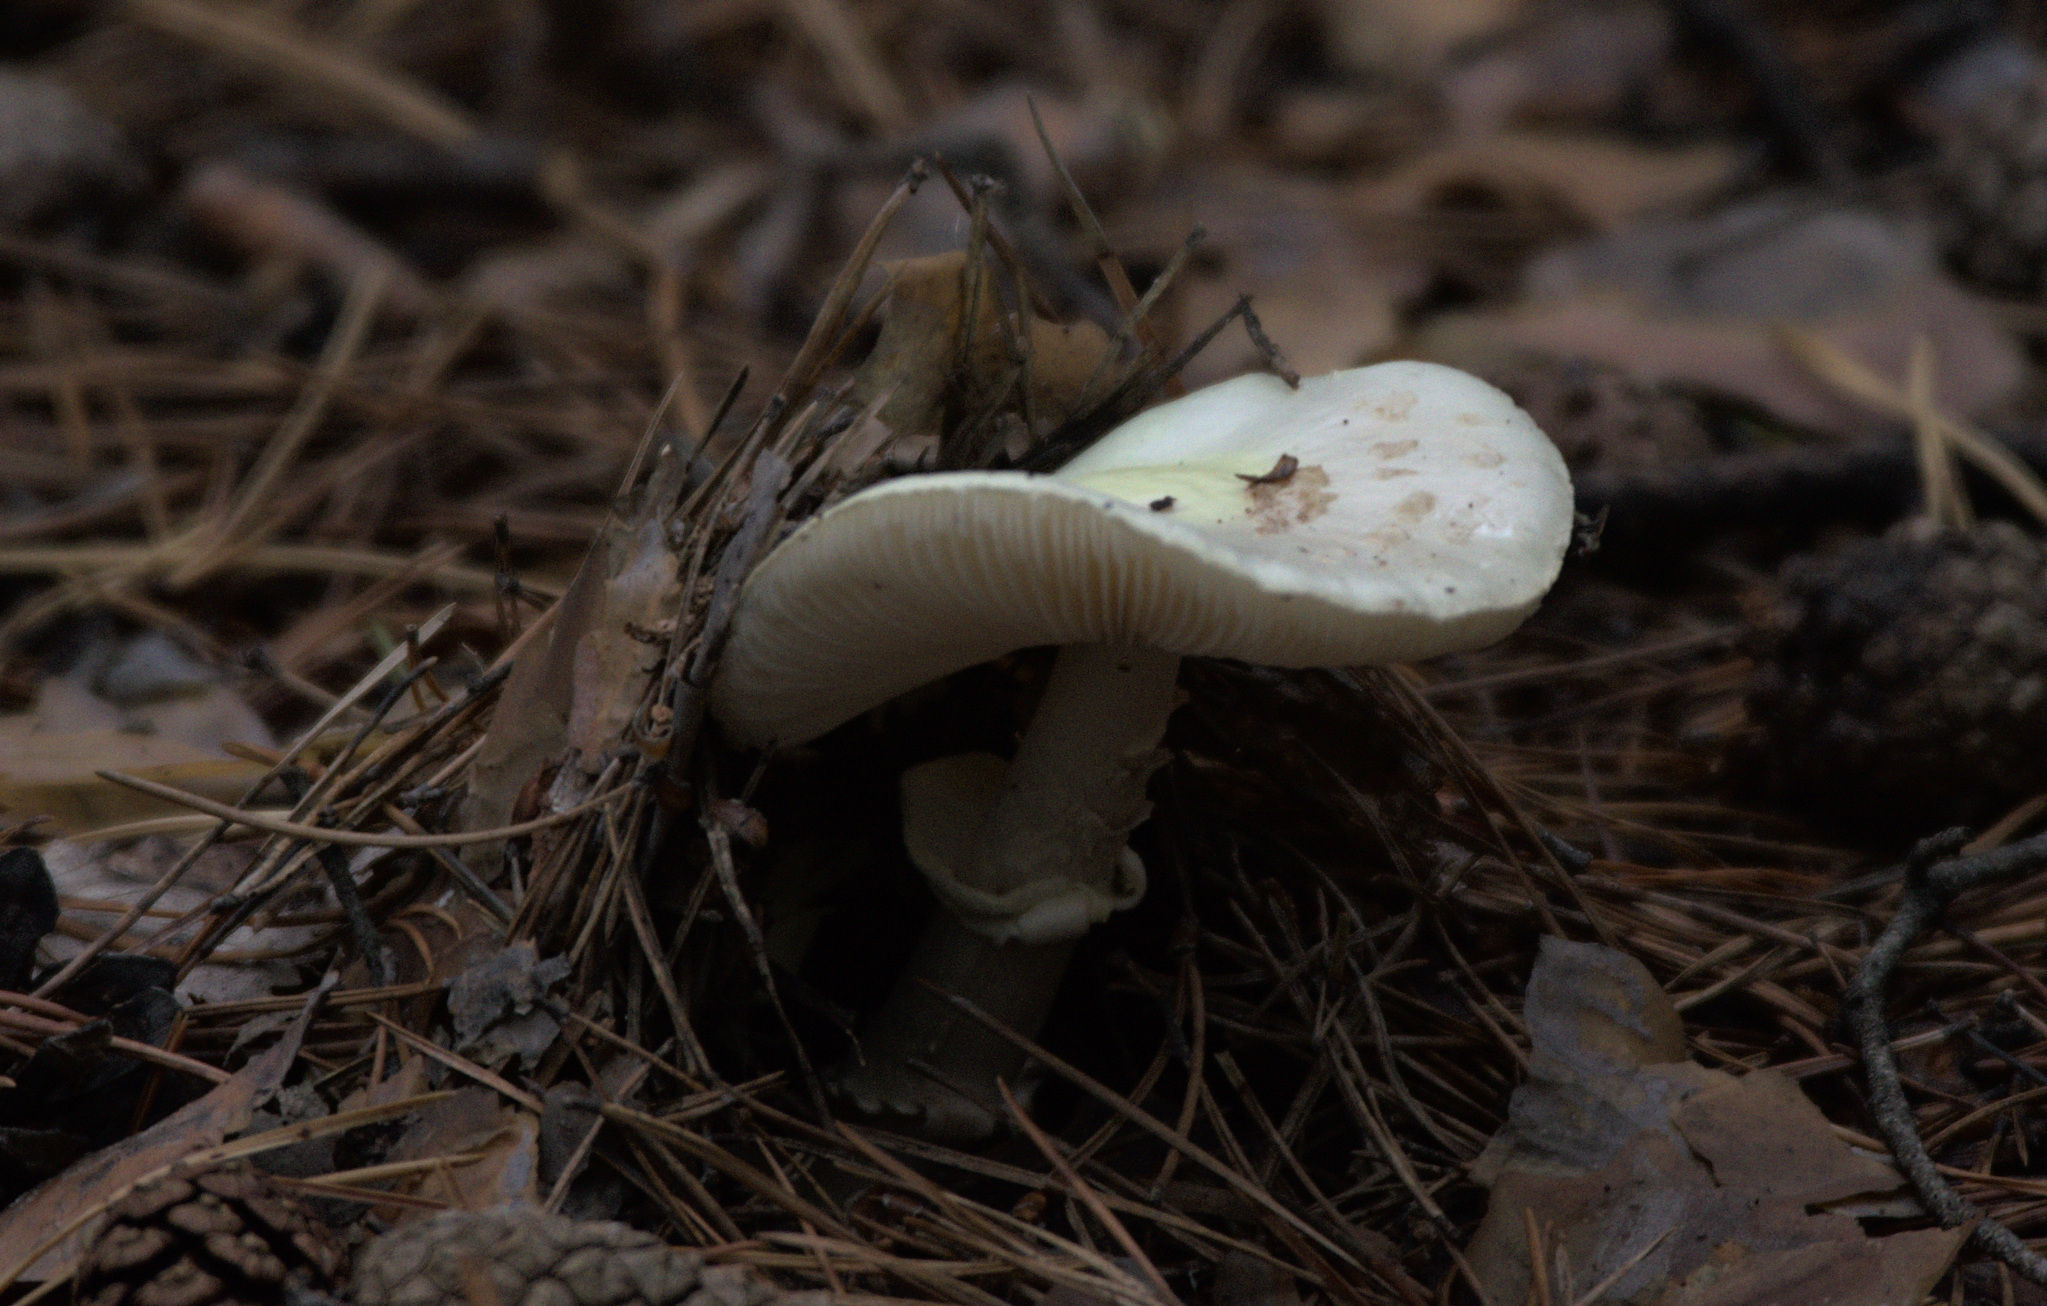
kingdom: Fungi
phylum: Basidiomycota
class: Agaricomycetes
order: Agaricales
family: Amanitaceae
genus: Amanita
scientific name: Amanita citrina
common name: False death-cap
